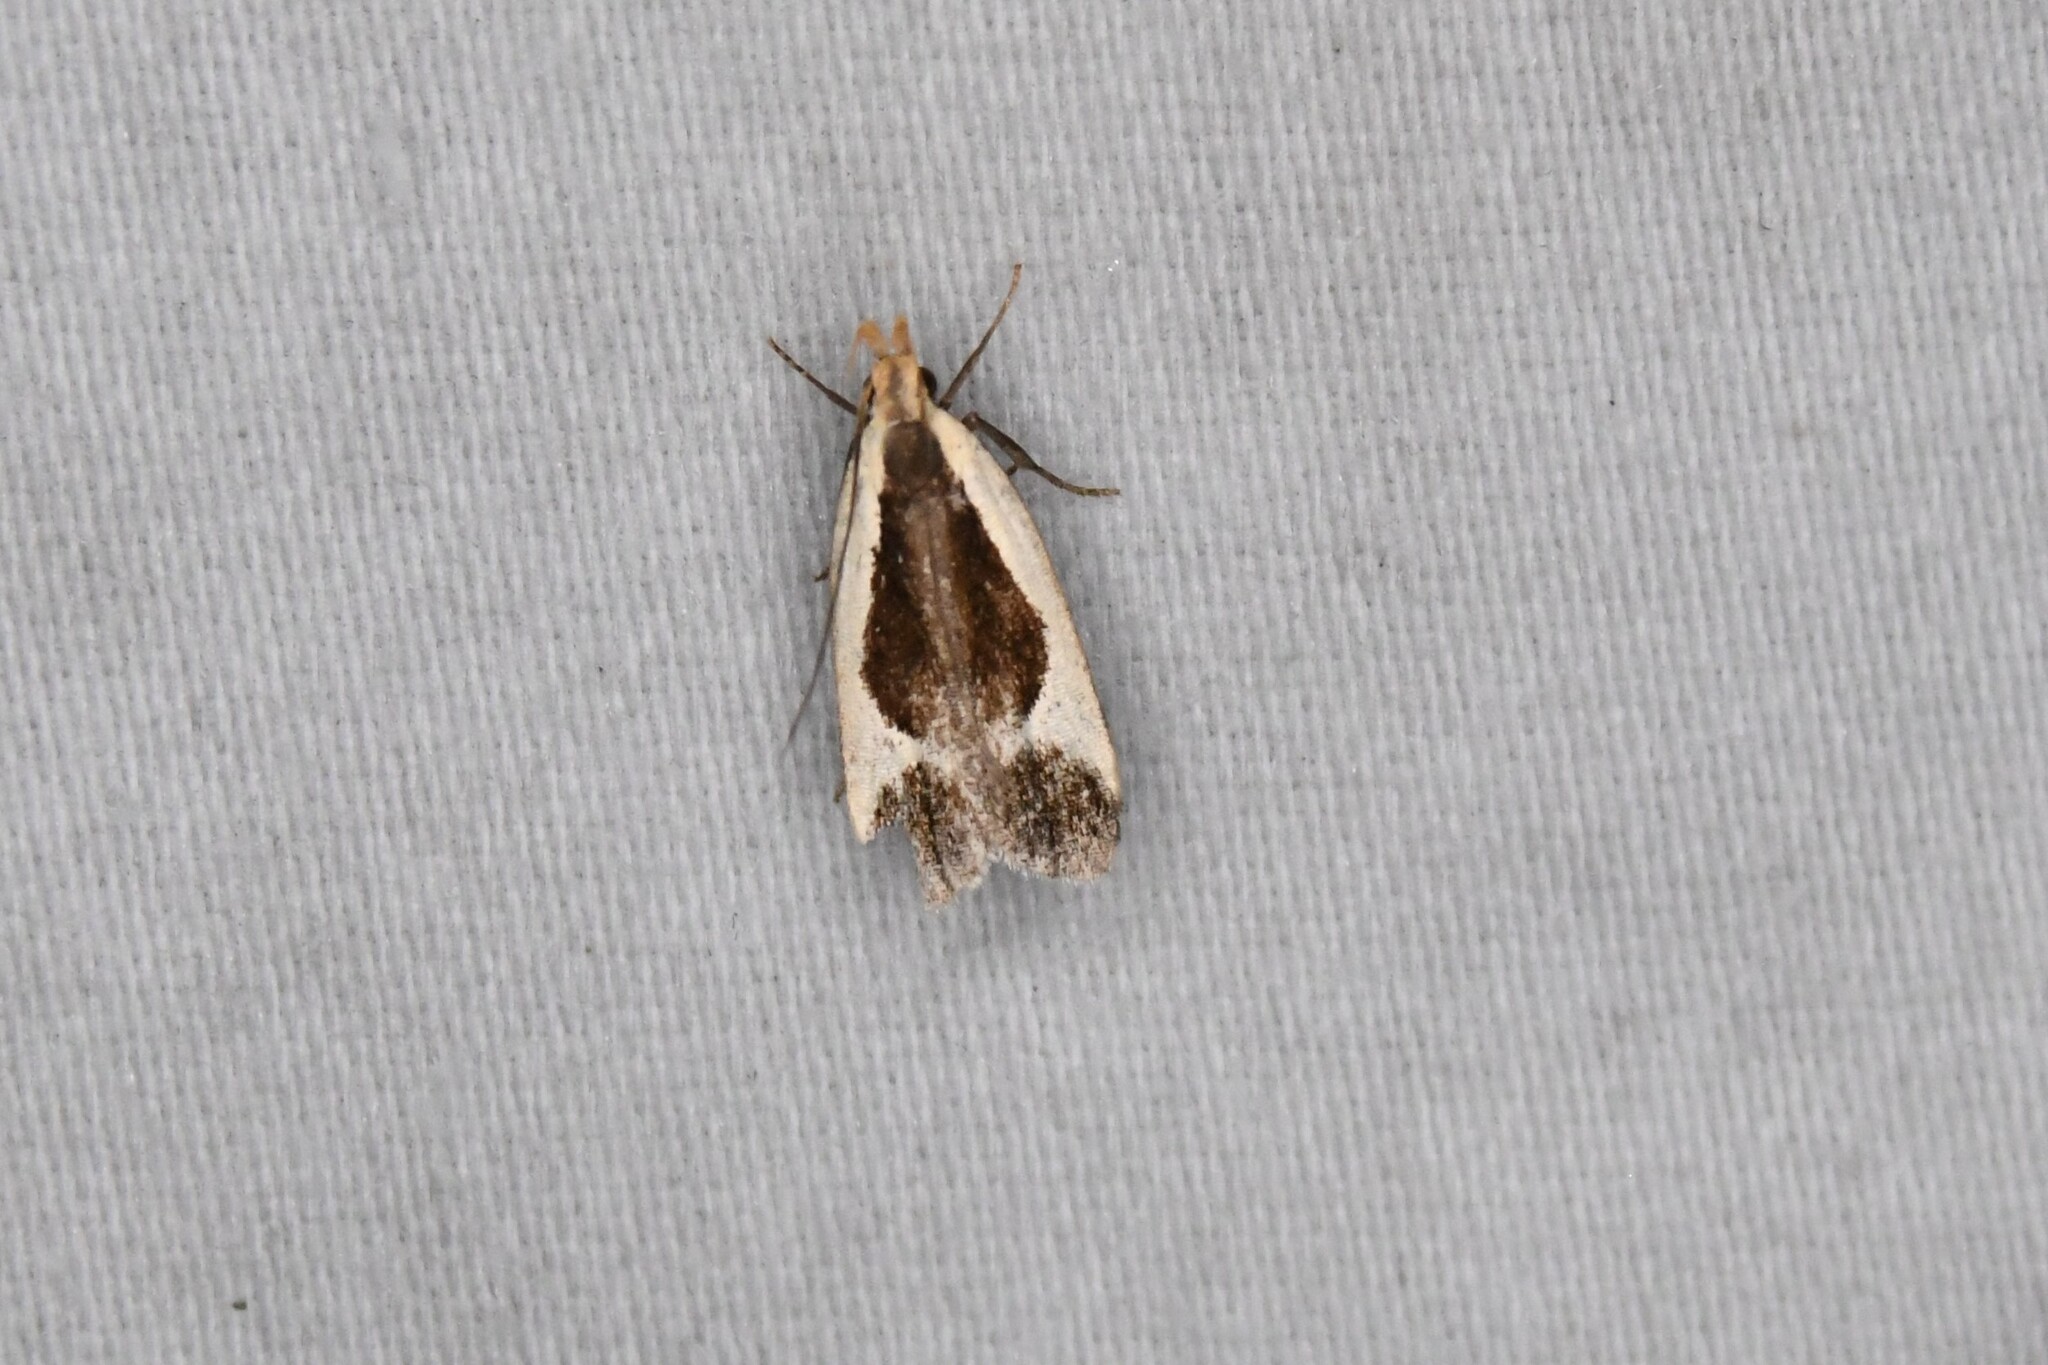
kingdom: Animalia
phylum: Arthropoda
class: Insecta
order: Lepidoptera
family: Gelechiidae
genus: Dichomeris
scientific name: Dichomeris flavocostella
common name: Cream-edged dichomeris moth
